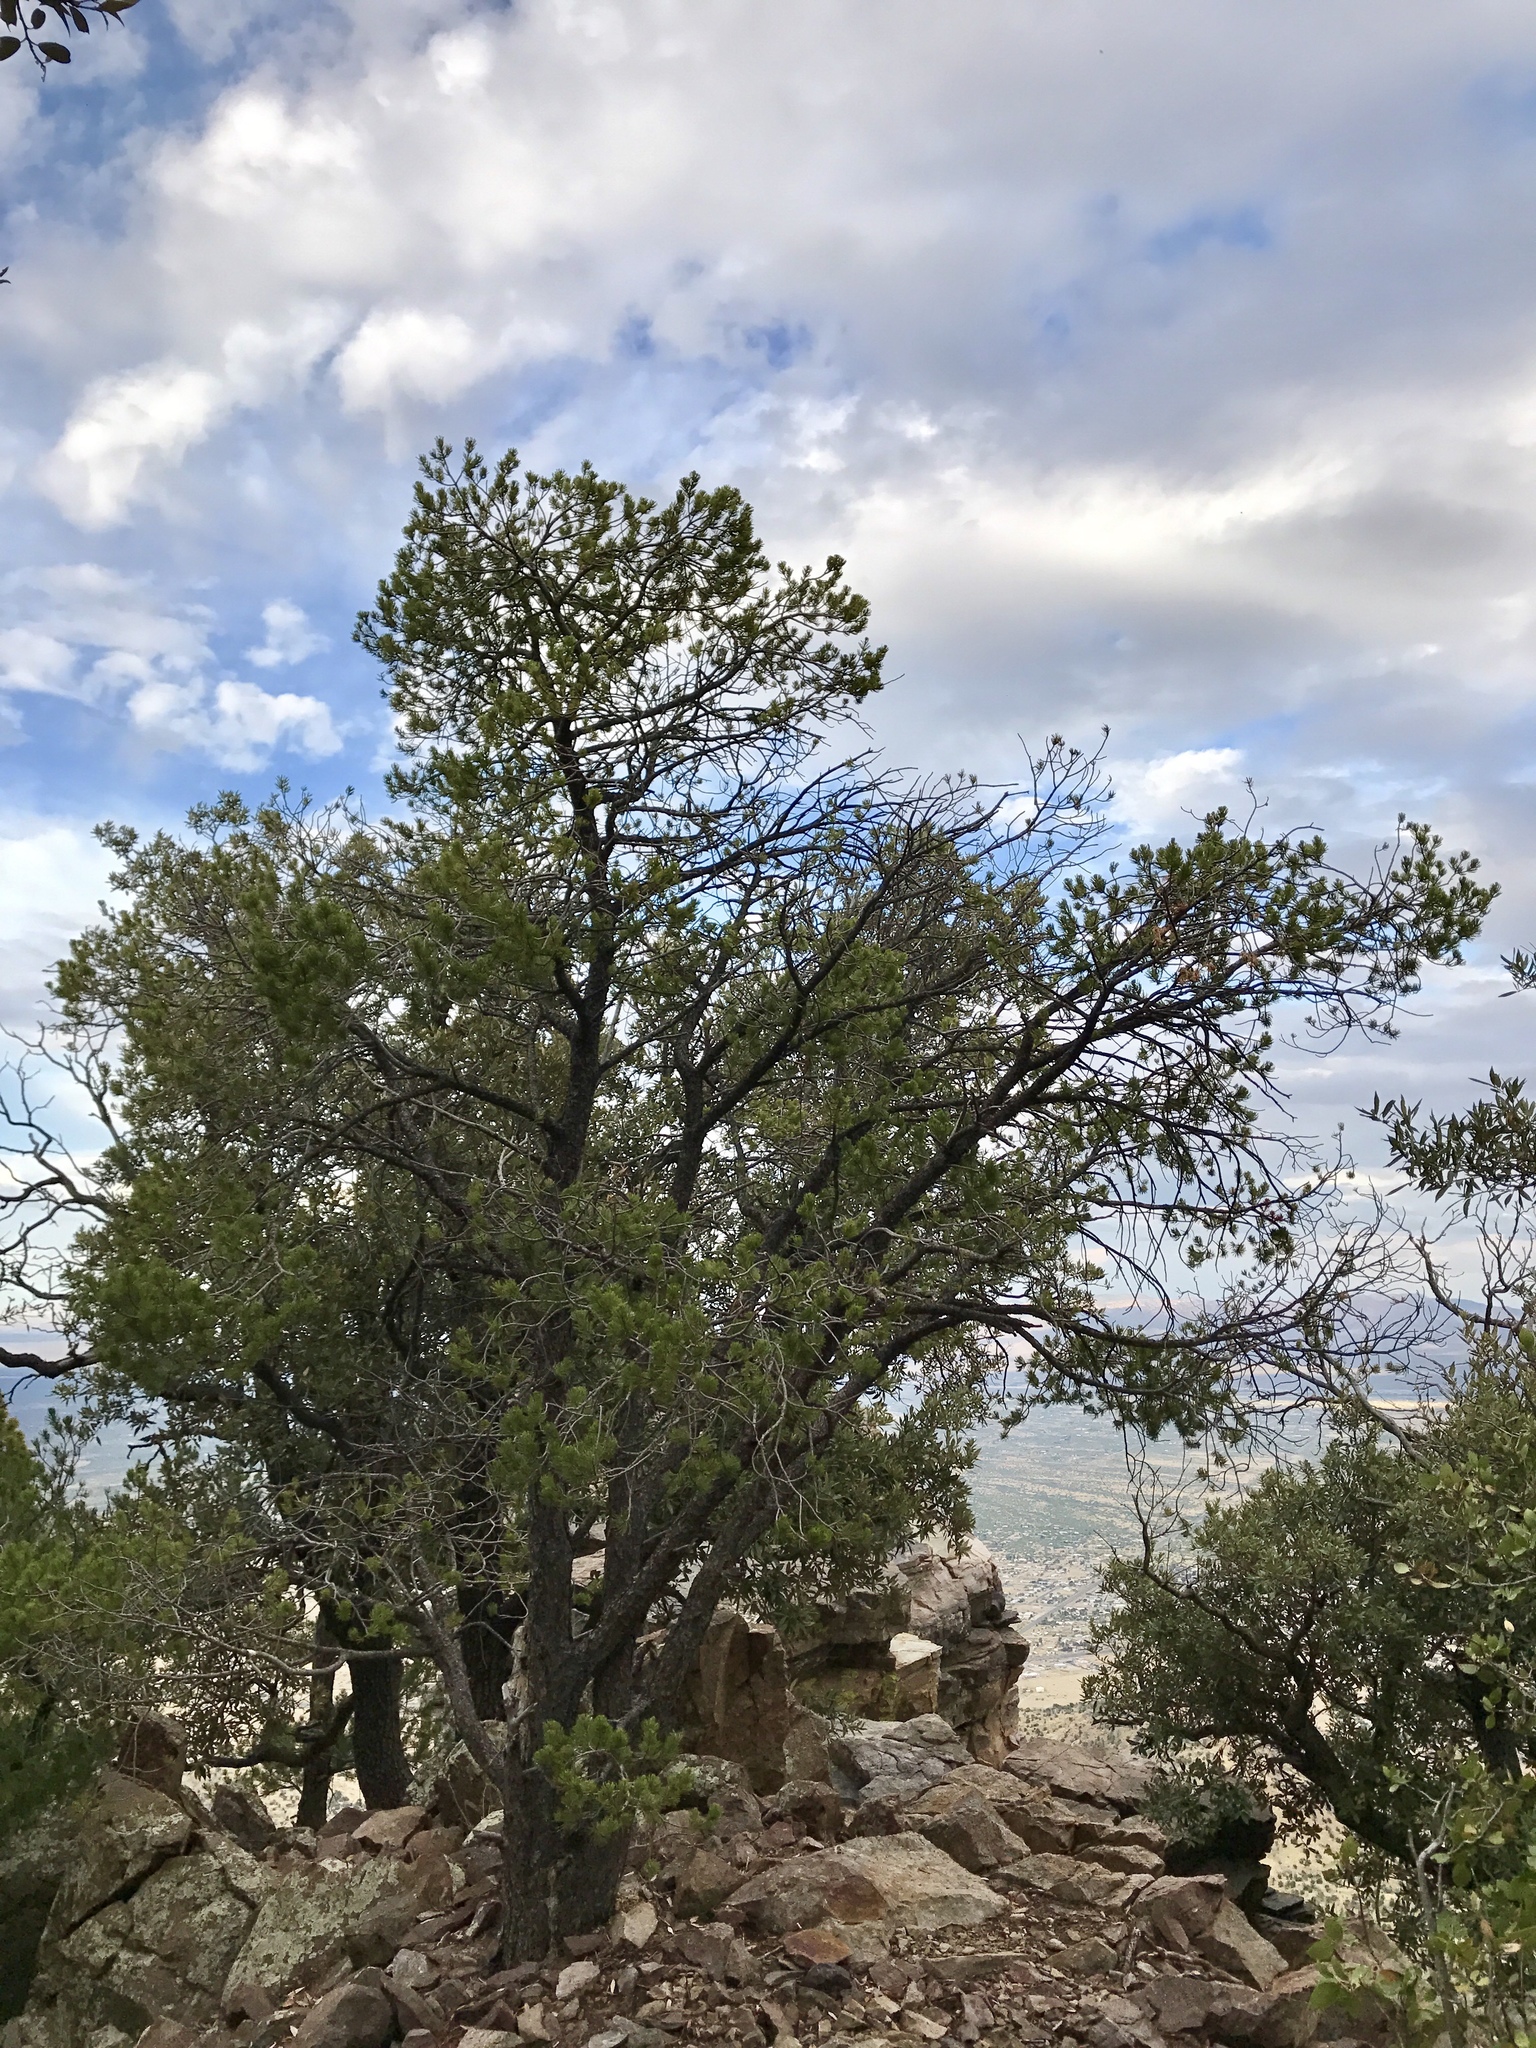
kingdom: Plantae
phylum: Tracheophyta
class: Pinopsida
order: Pinales
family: Pinaceae
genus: Pinus
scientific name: Pinus discolor
